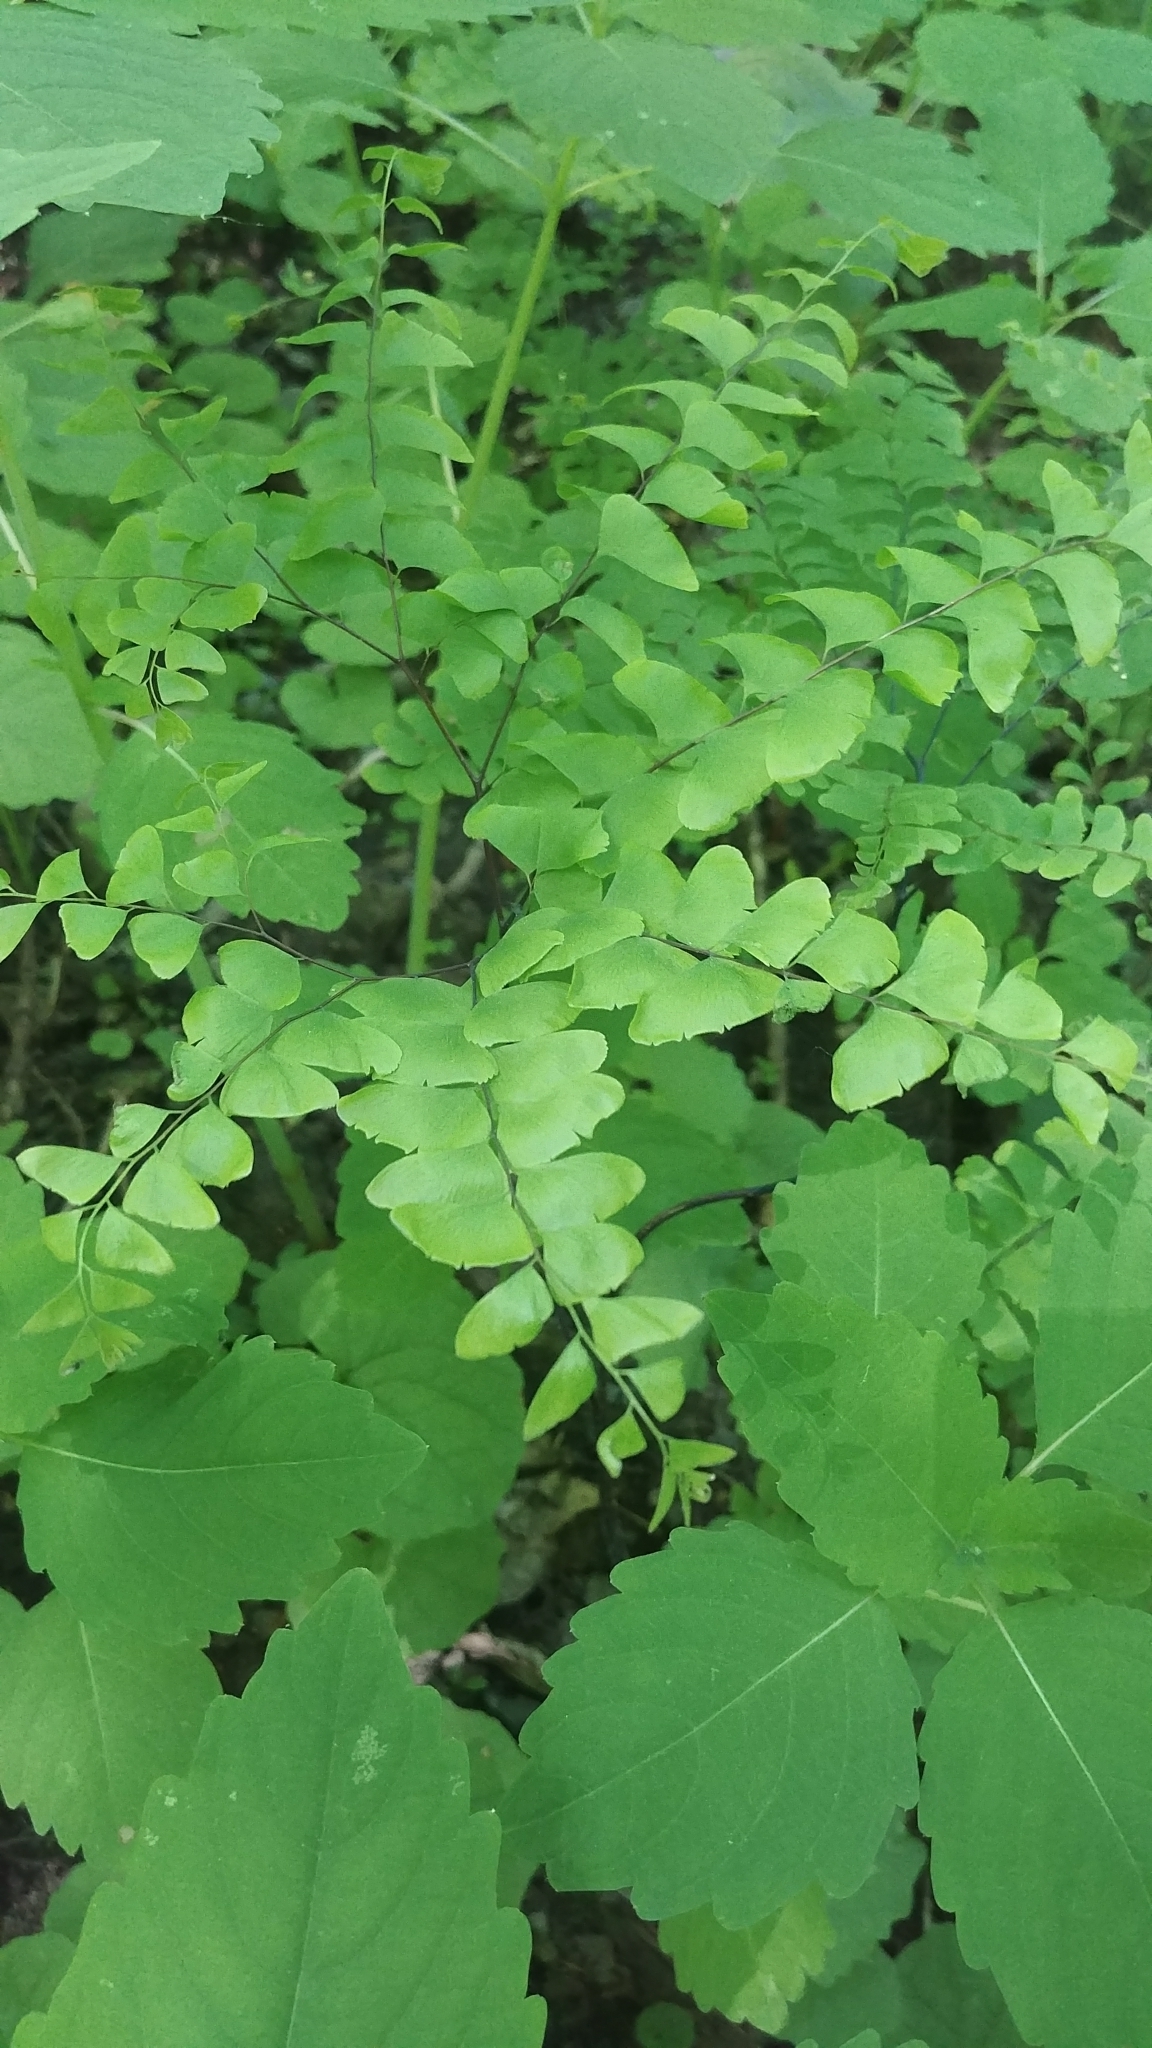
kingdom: Plantae
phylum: Tracheophyta
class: Polypodiopsida
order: Polypodiales
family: Pteridaceae
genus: Adiantum
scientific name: Adiantum pedatum
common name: Five-finger fern
